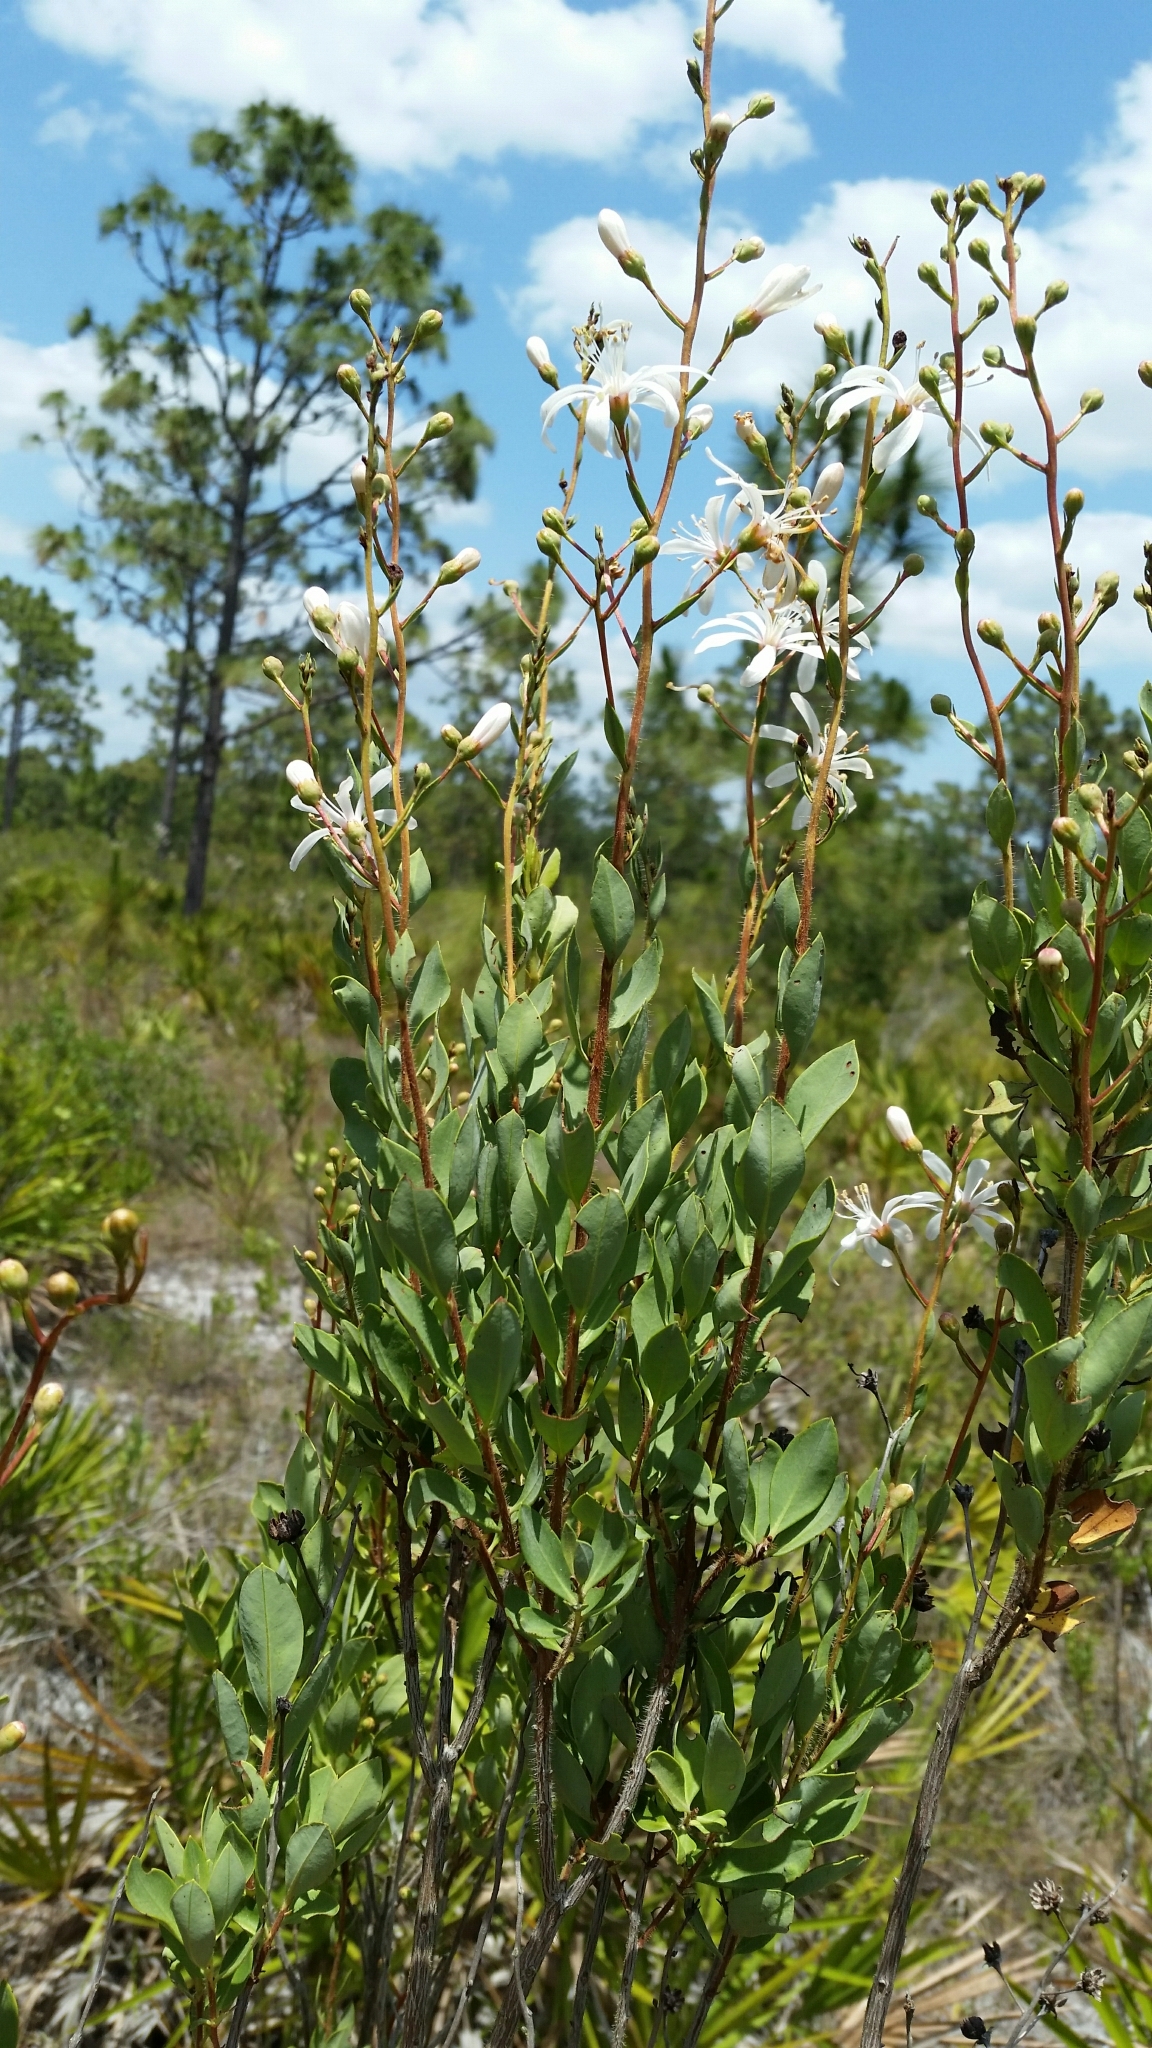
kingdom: Plantae
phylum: Tracheophyta
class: Magnoliopsida
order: Ericales
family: Ericaceae
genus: Bejaria
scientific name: Bejaria racemosa
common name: Tarflower
